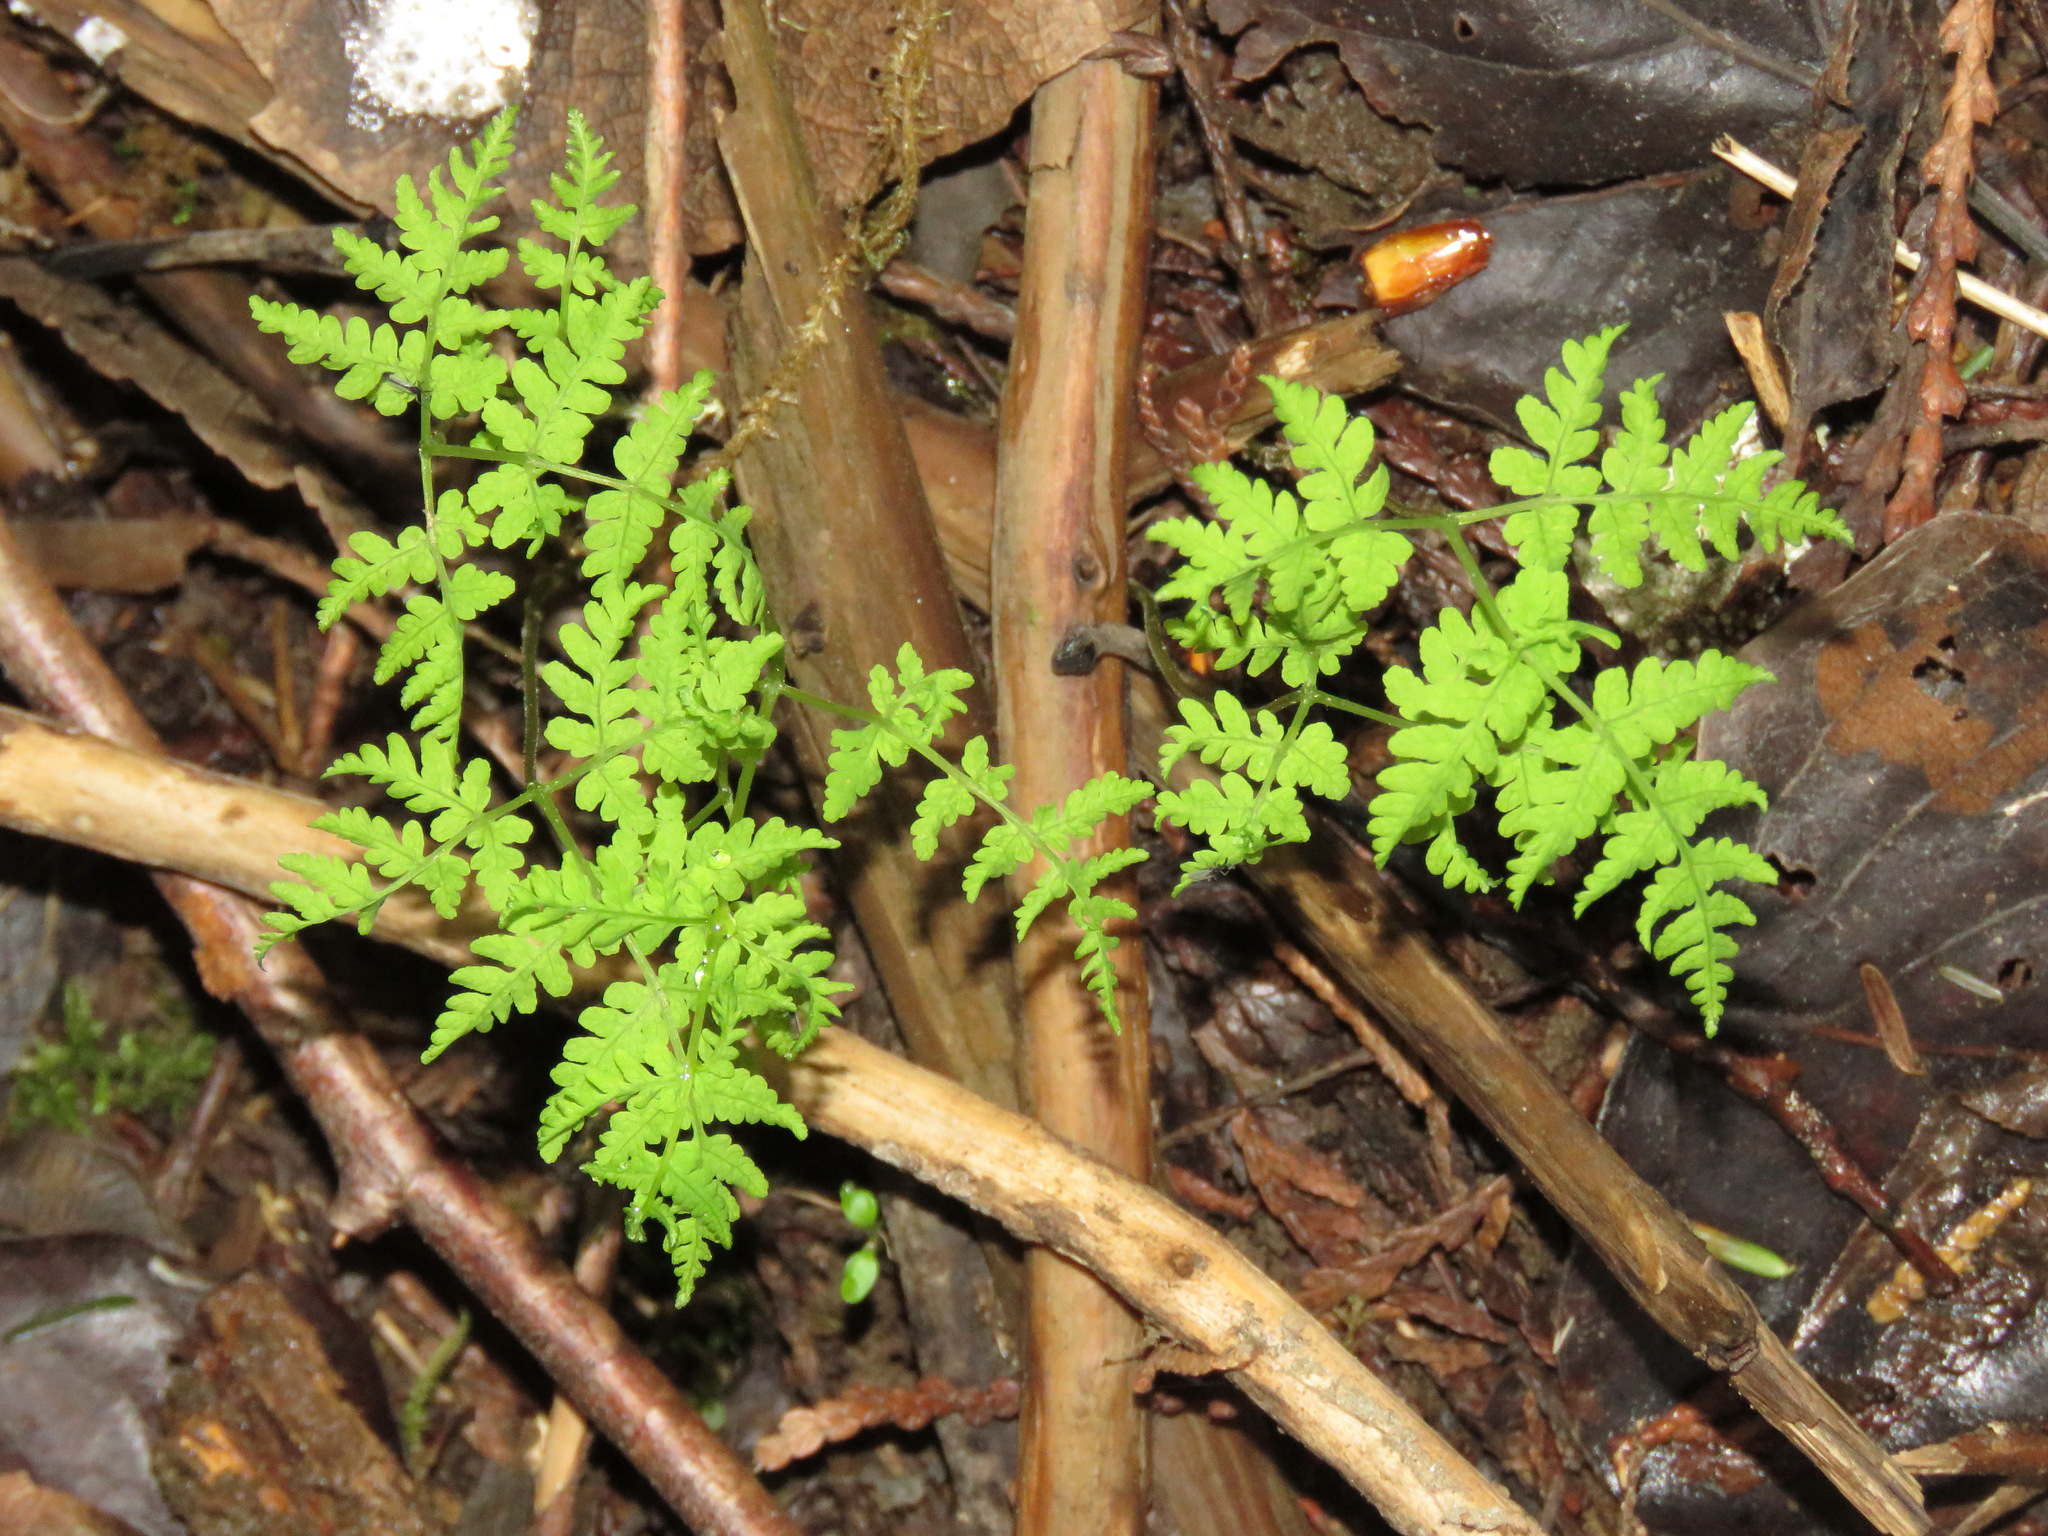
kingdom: Plantae
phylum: Tracheophyta
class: Polypodiopsida
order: Polypodiales
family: Dennstaedtiaceae
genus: Pteridium
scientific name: Pteridium aquilinum
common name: Bracken
